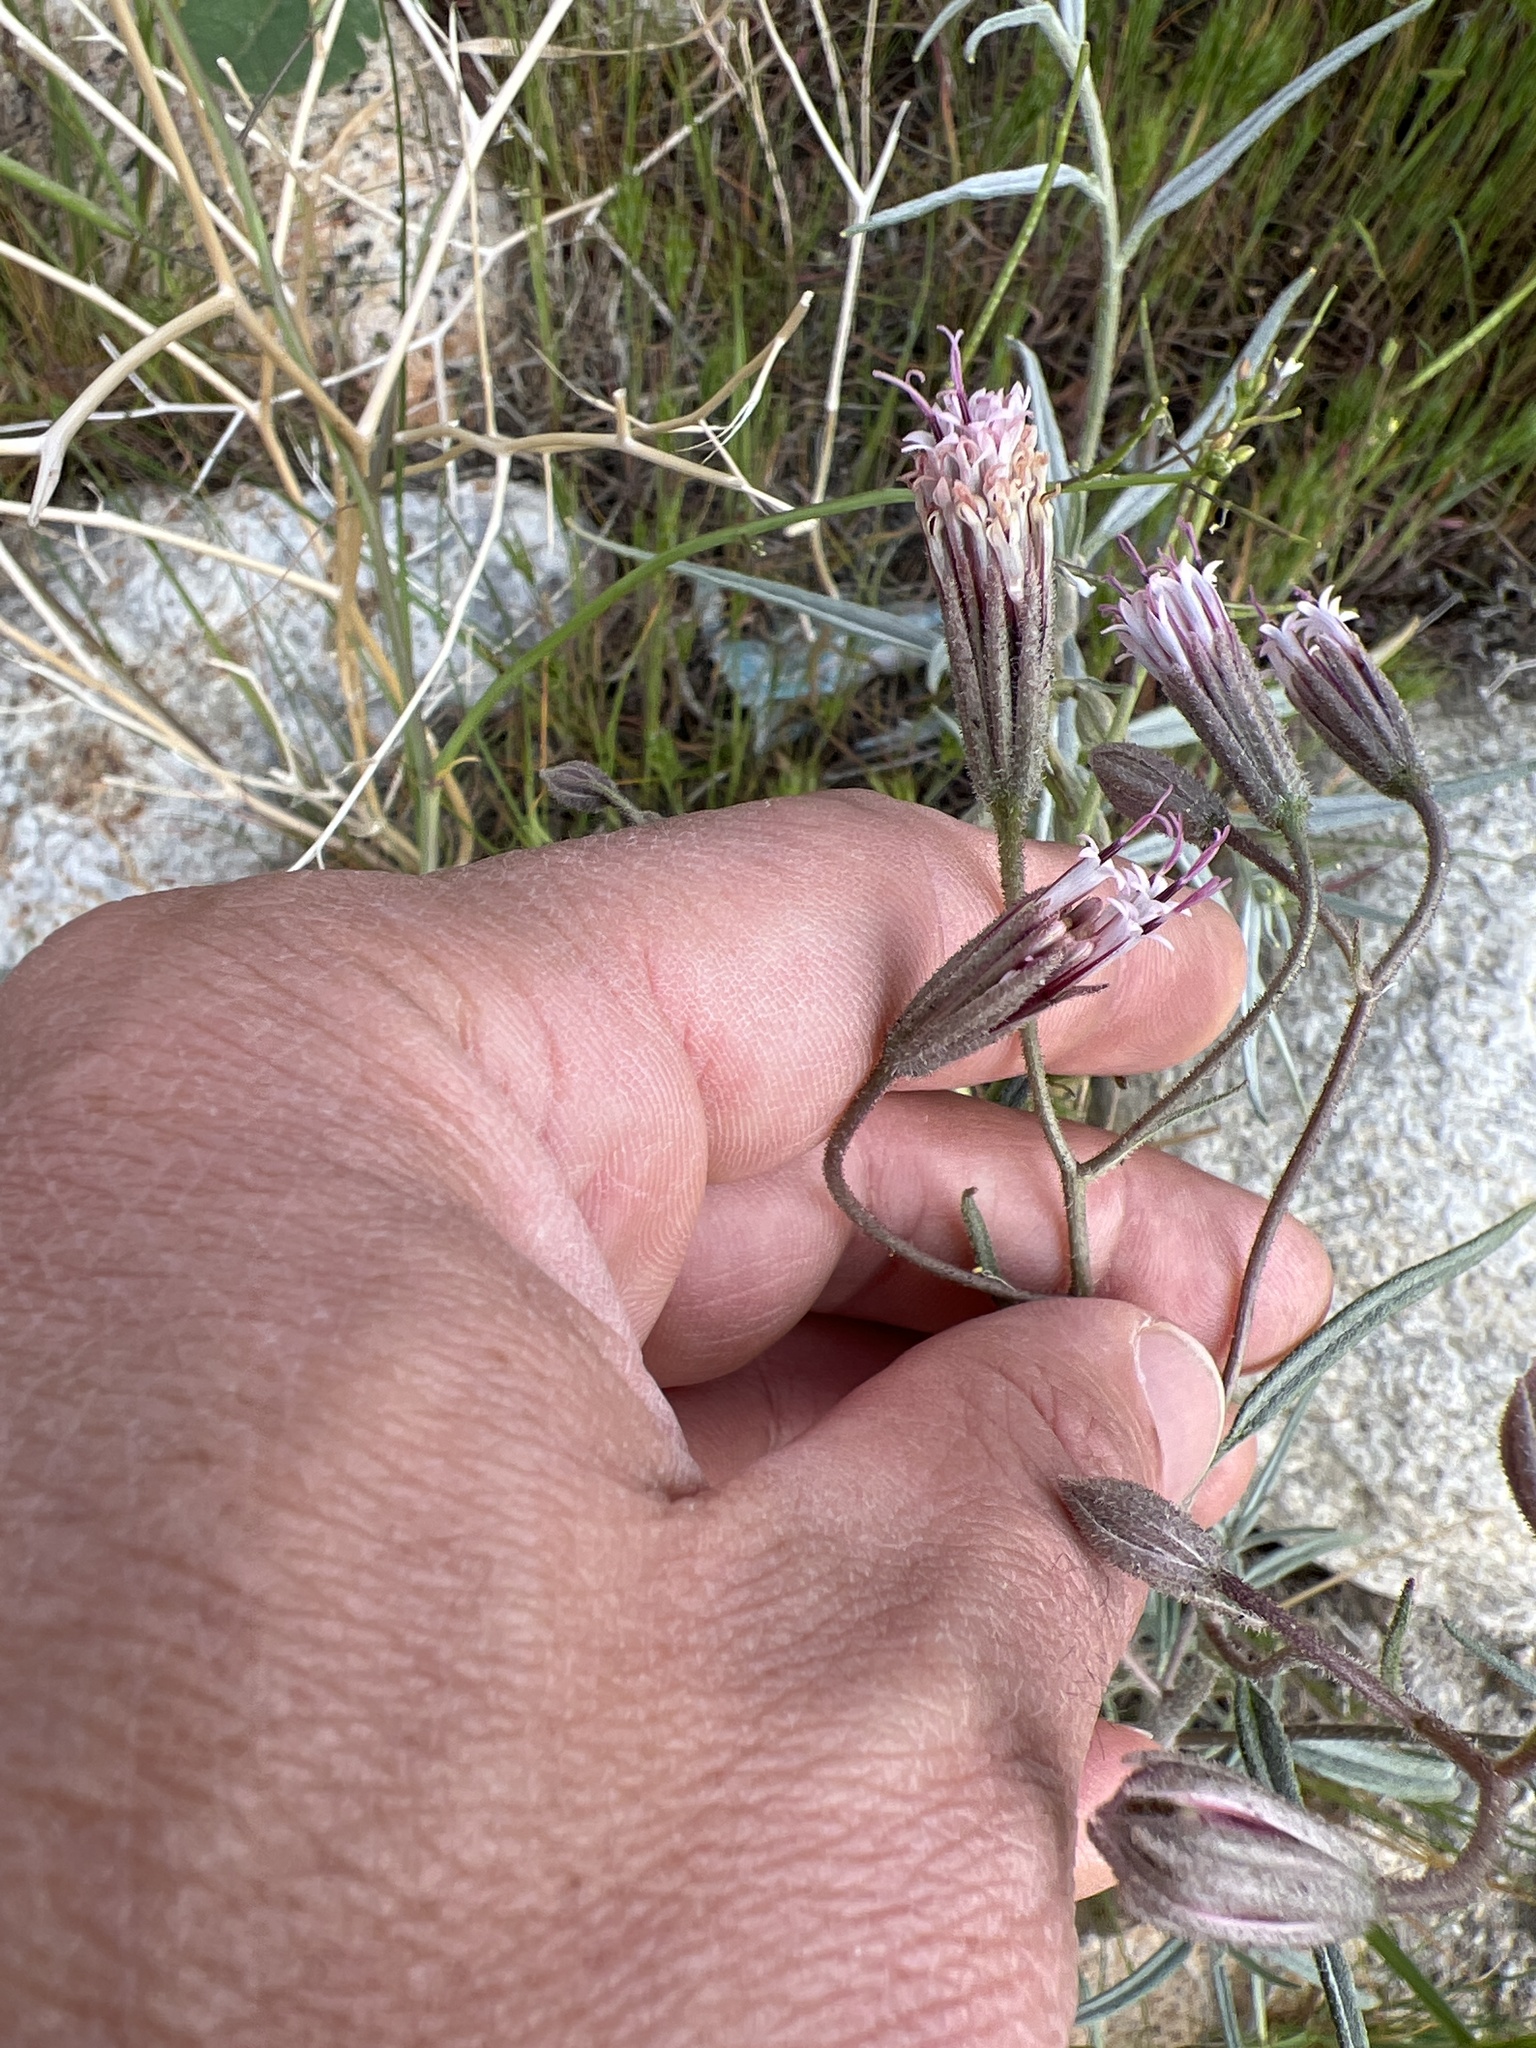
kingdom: Plantae
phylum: Tracheophyta
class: Magnoliopsida
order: Asterales
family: Asteraceae
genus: Palafoxia
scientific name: Palafoxia arida
